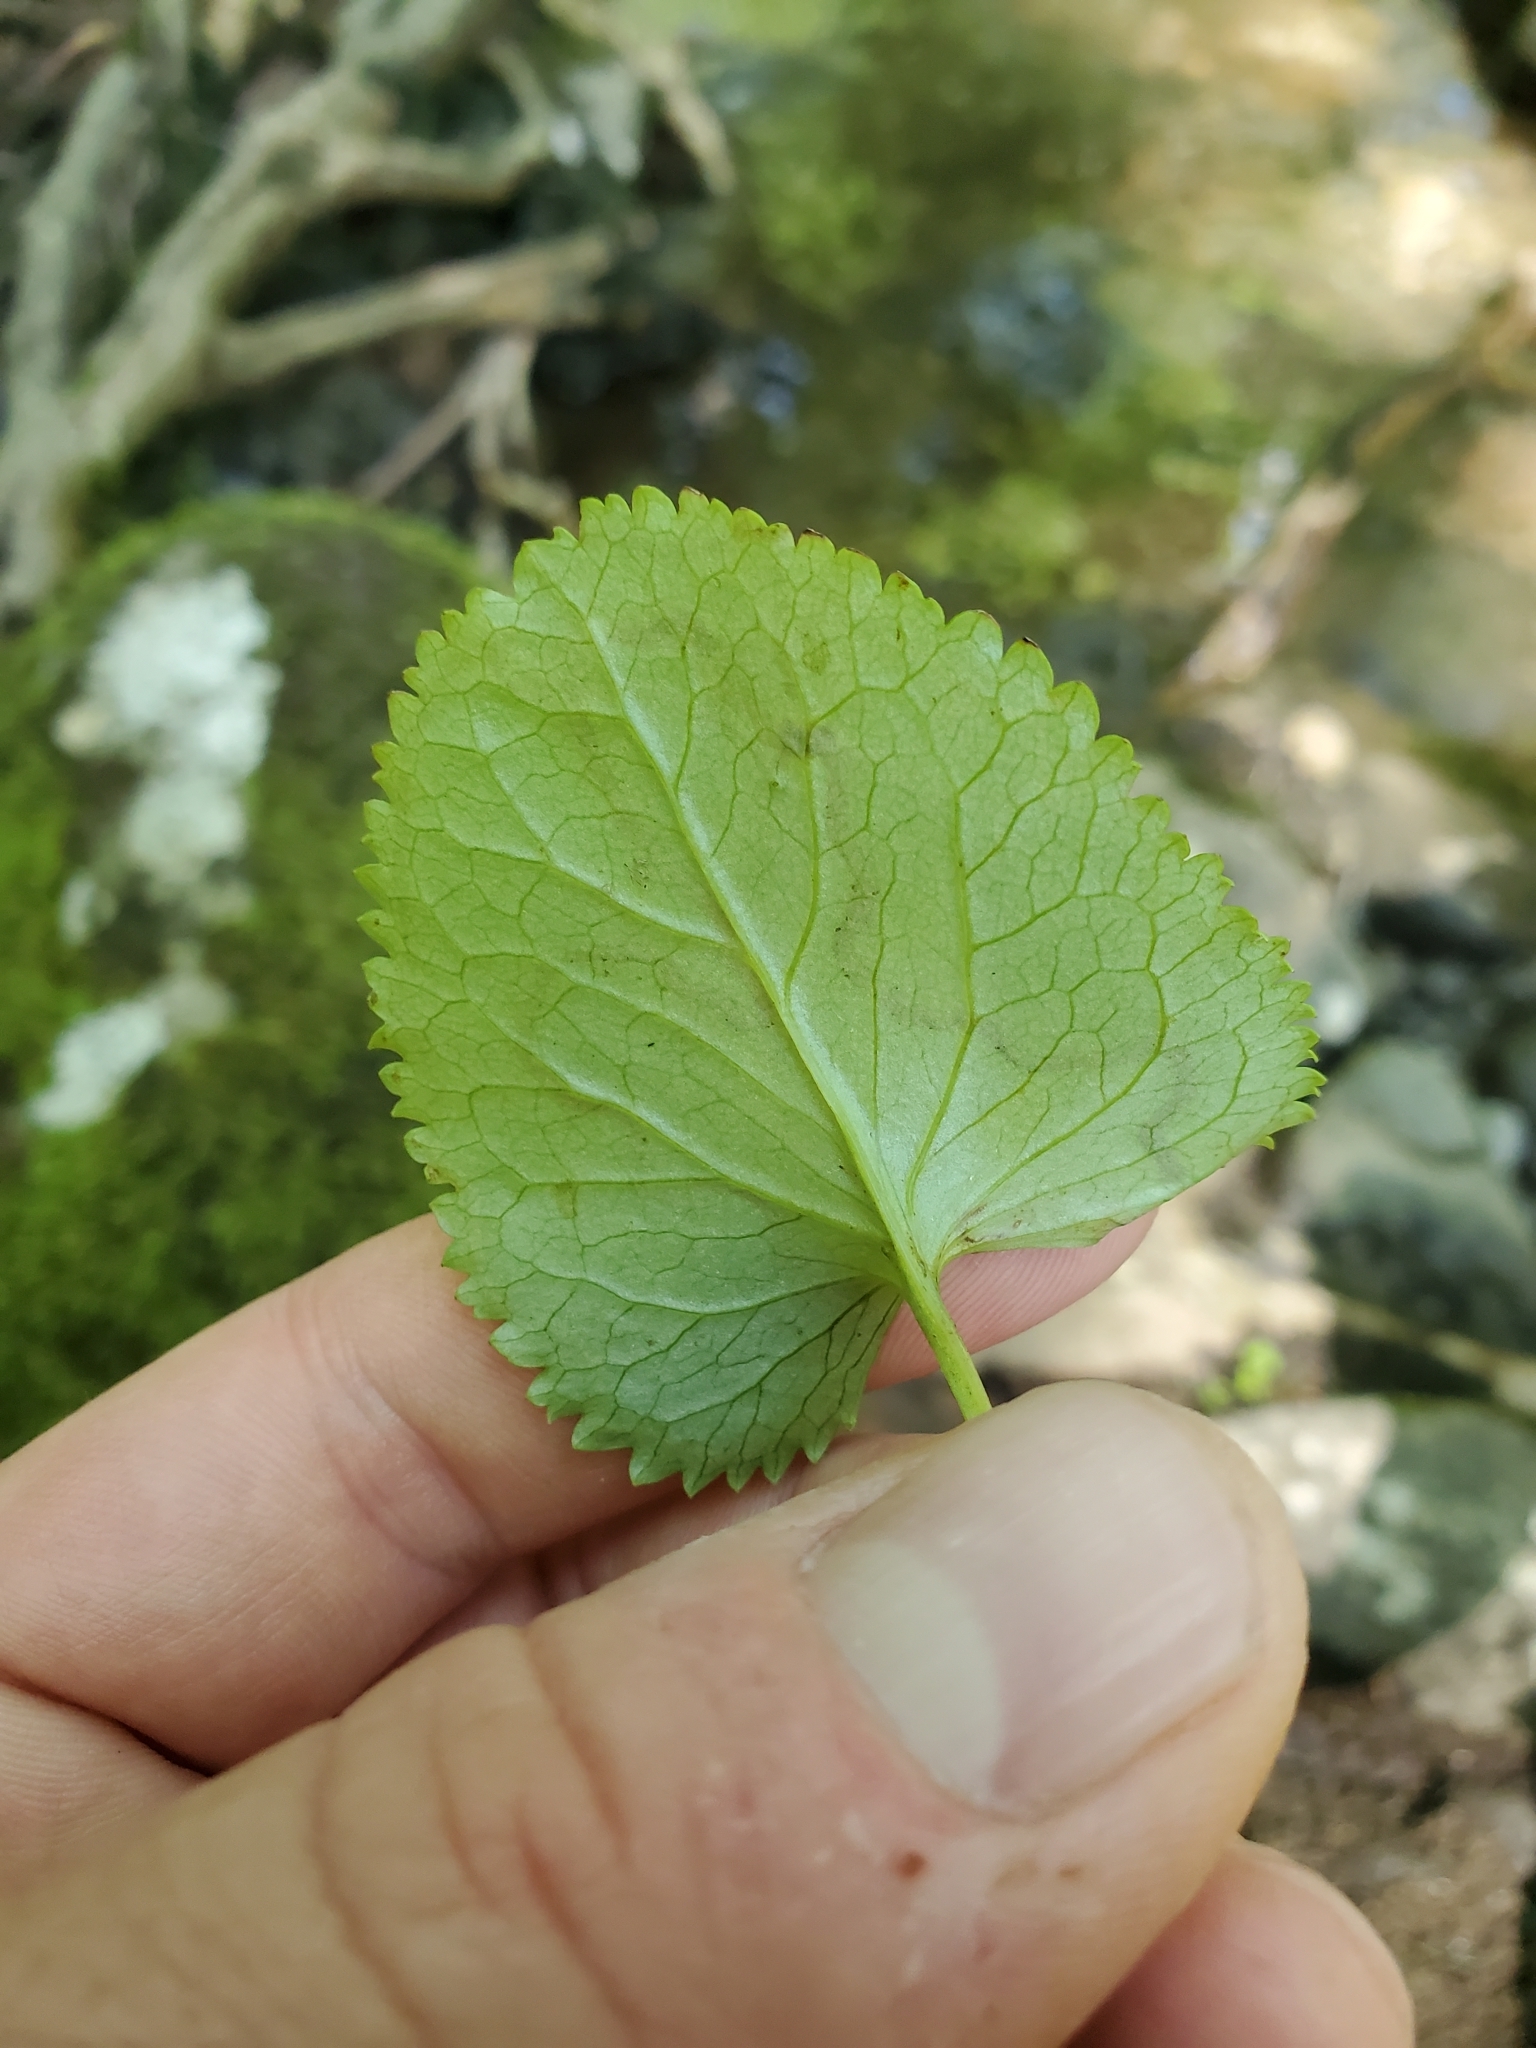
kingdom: Animalia
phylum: Arthropoda
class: Insecta
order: Lepidoptera
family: Gracillariidae
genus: Phyllocnistis
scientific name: Phyllocnistis insignis
